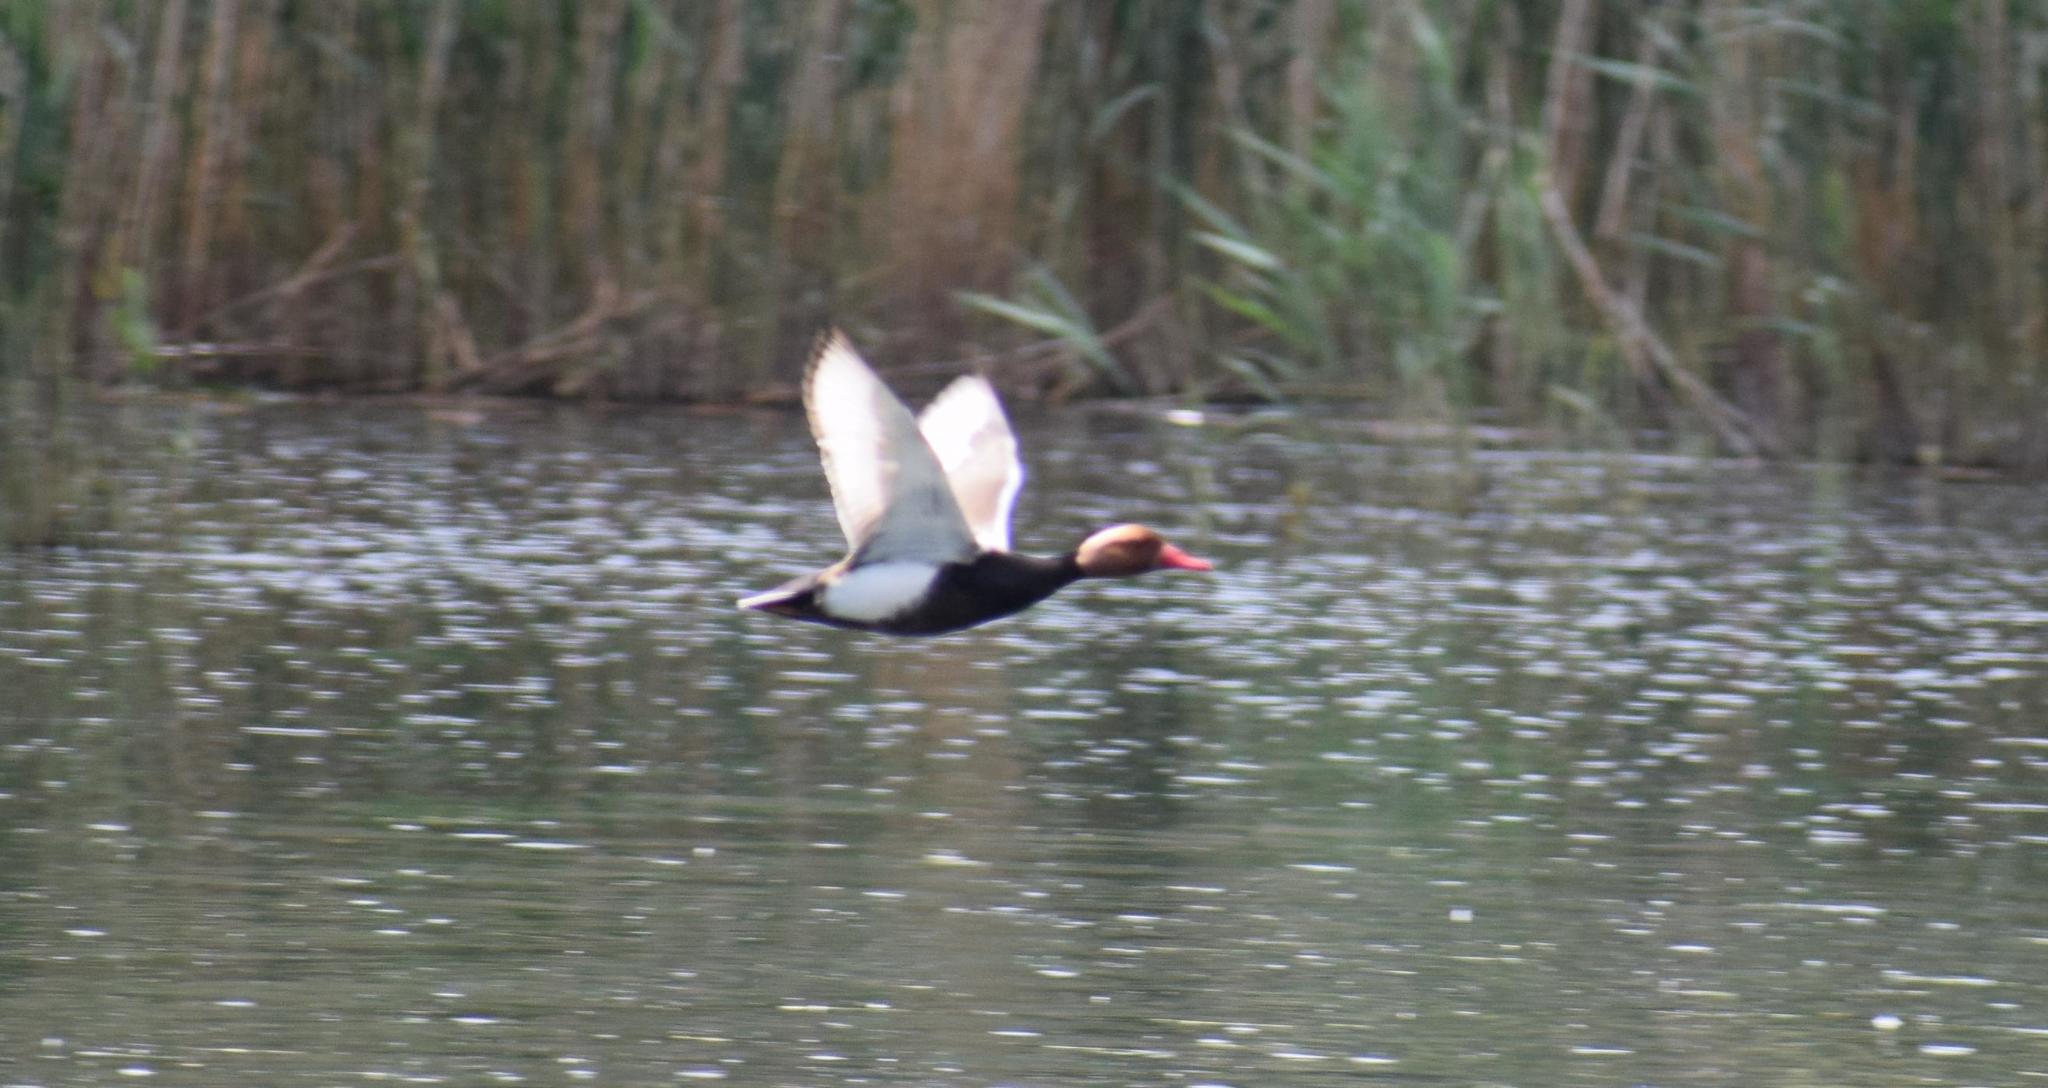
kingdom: Animalia
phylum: Chordata
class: Aves
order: Anseriformes
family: Anatidae
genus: Netta
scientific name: Netta rufina
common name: Red-crested pochard
